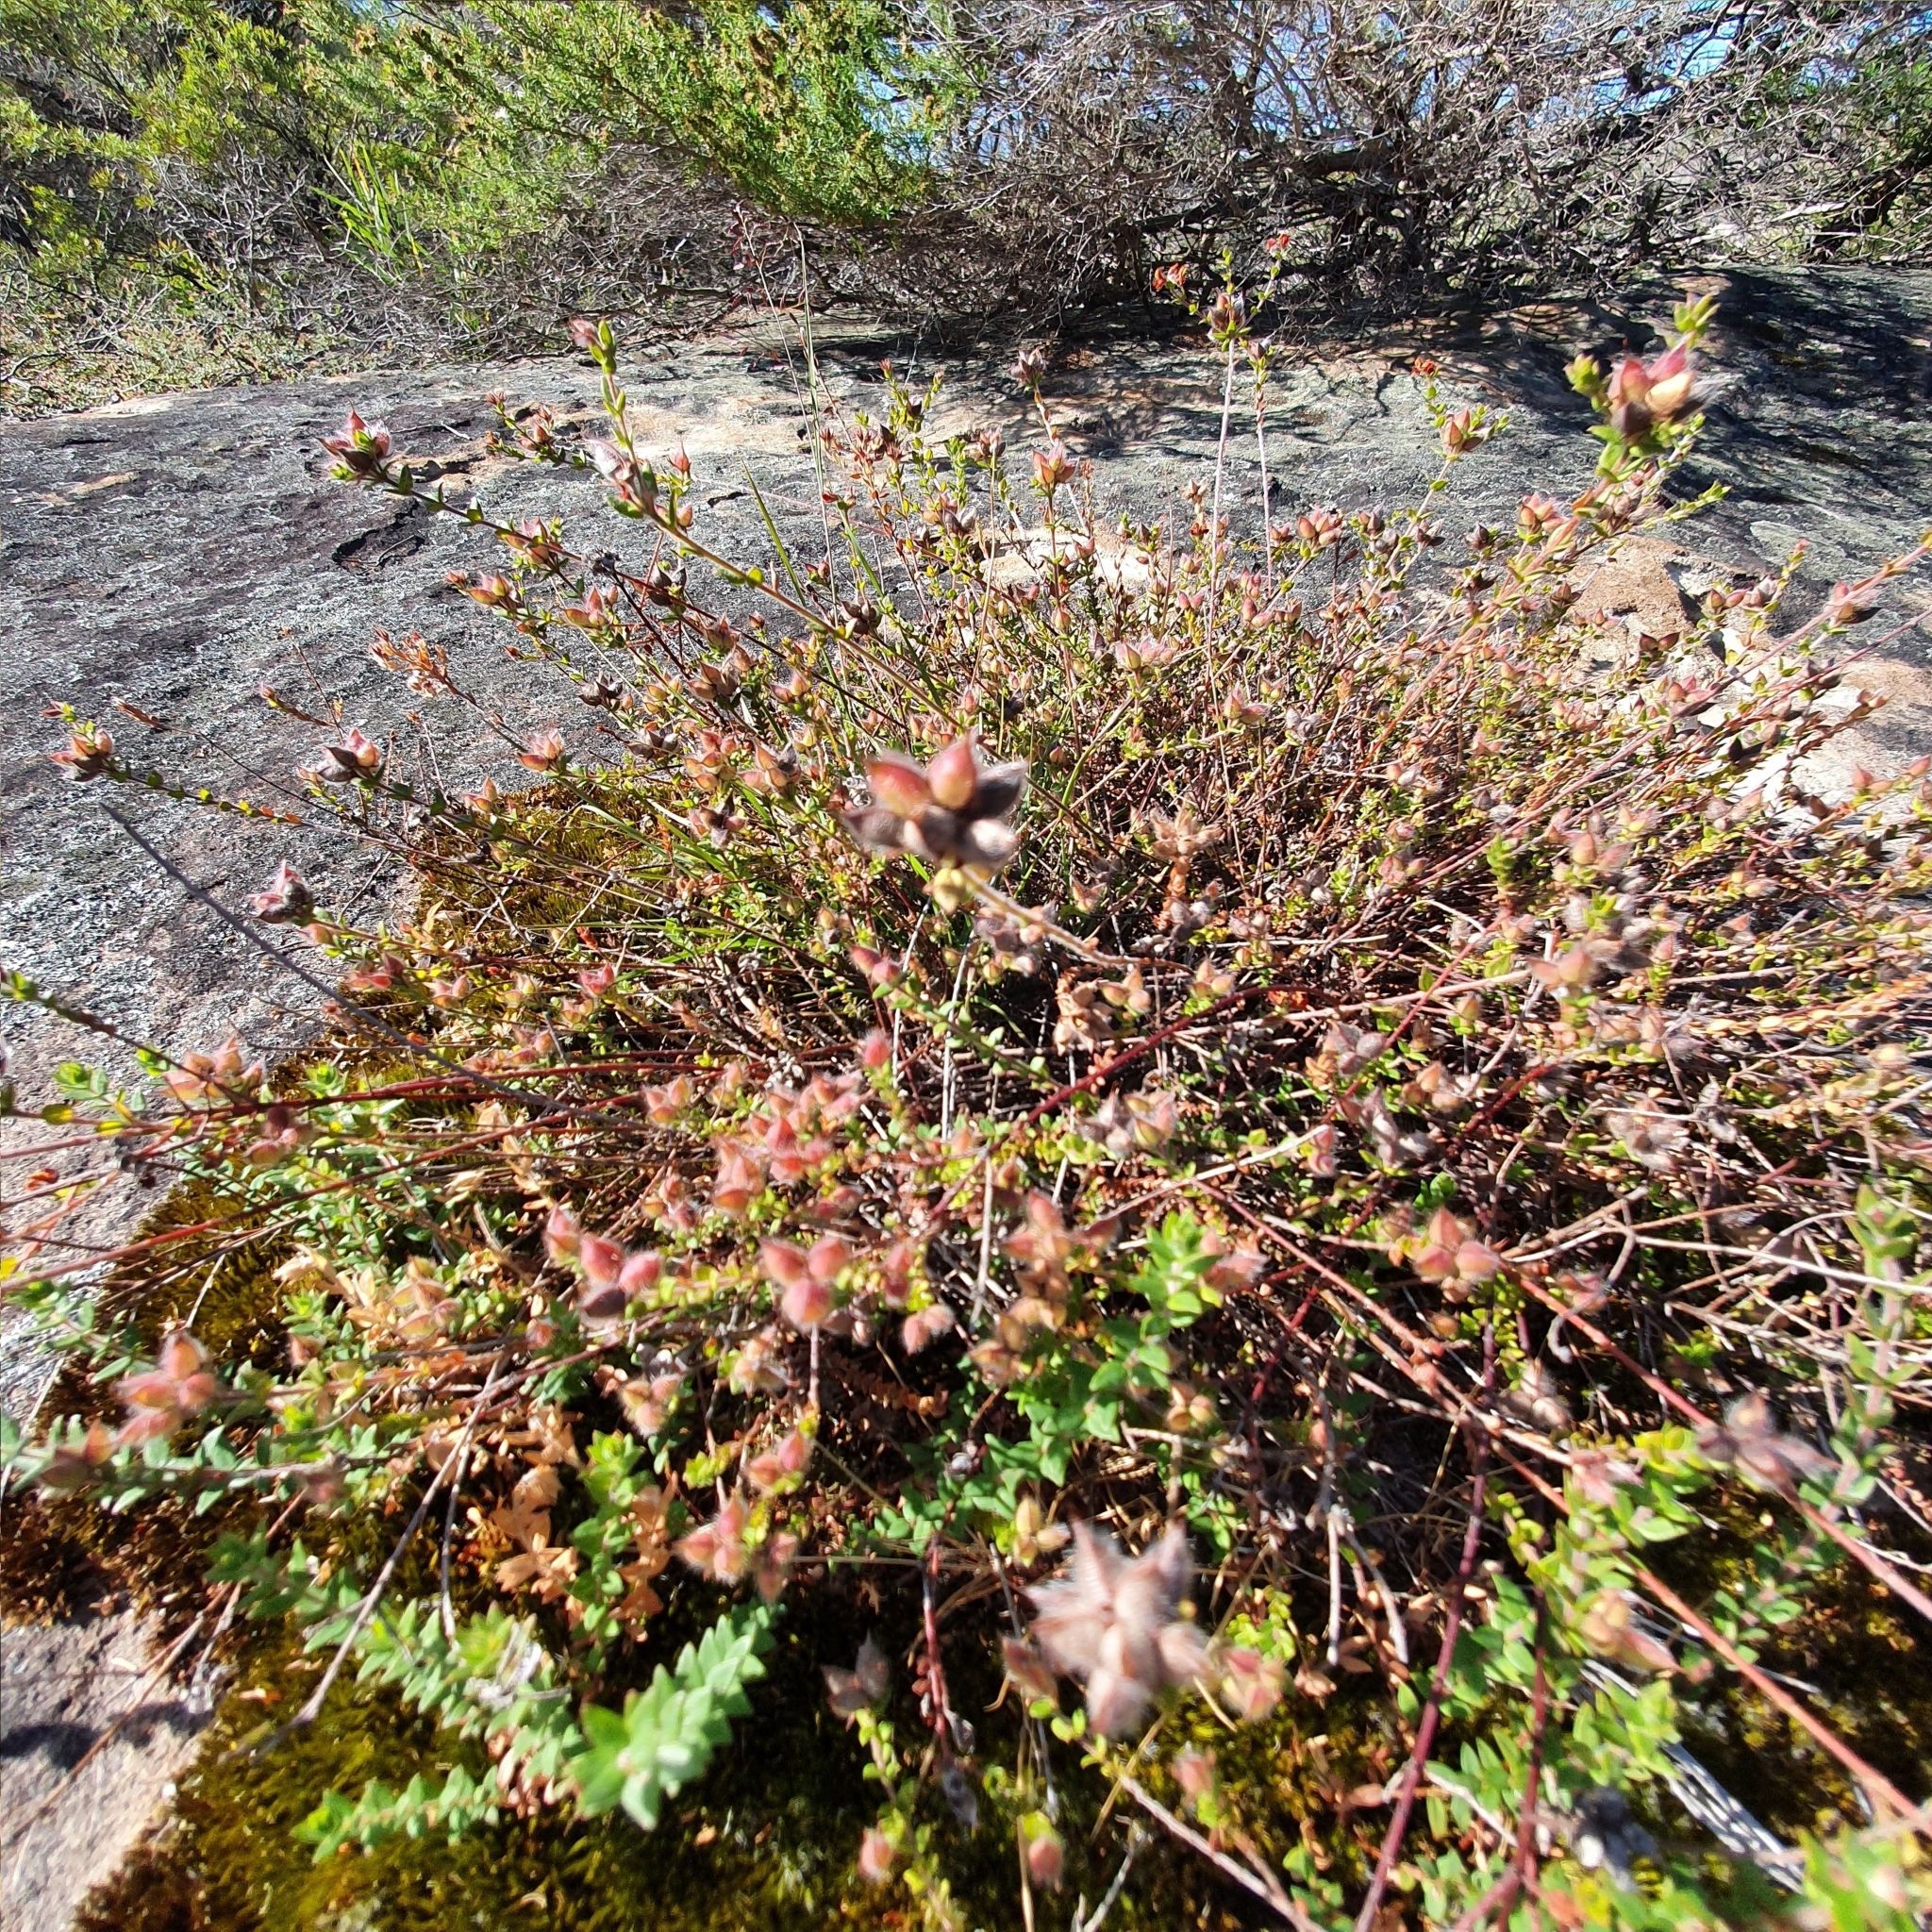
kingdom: Plantae
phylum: Tracheophyta
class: Magnoliopsida
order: Fabales
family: Fabaceae
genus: Oxylobium
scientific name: Oxylobium cordifolium
